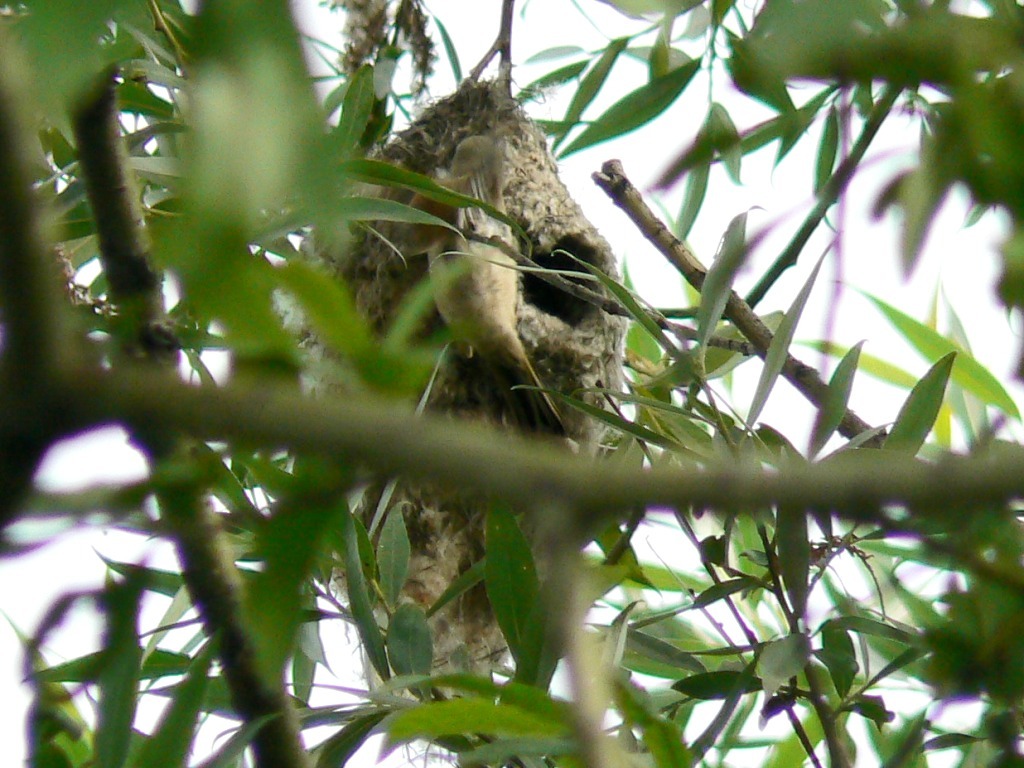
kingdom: Animalia
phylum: Chordata
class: Aves
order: Passeriformes
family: Remizidae
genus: Remiz
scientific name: Remiz pendulinus
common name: Eurasian penduline tit
